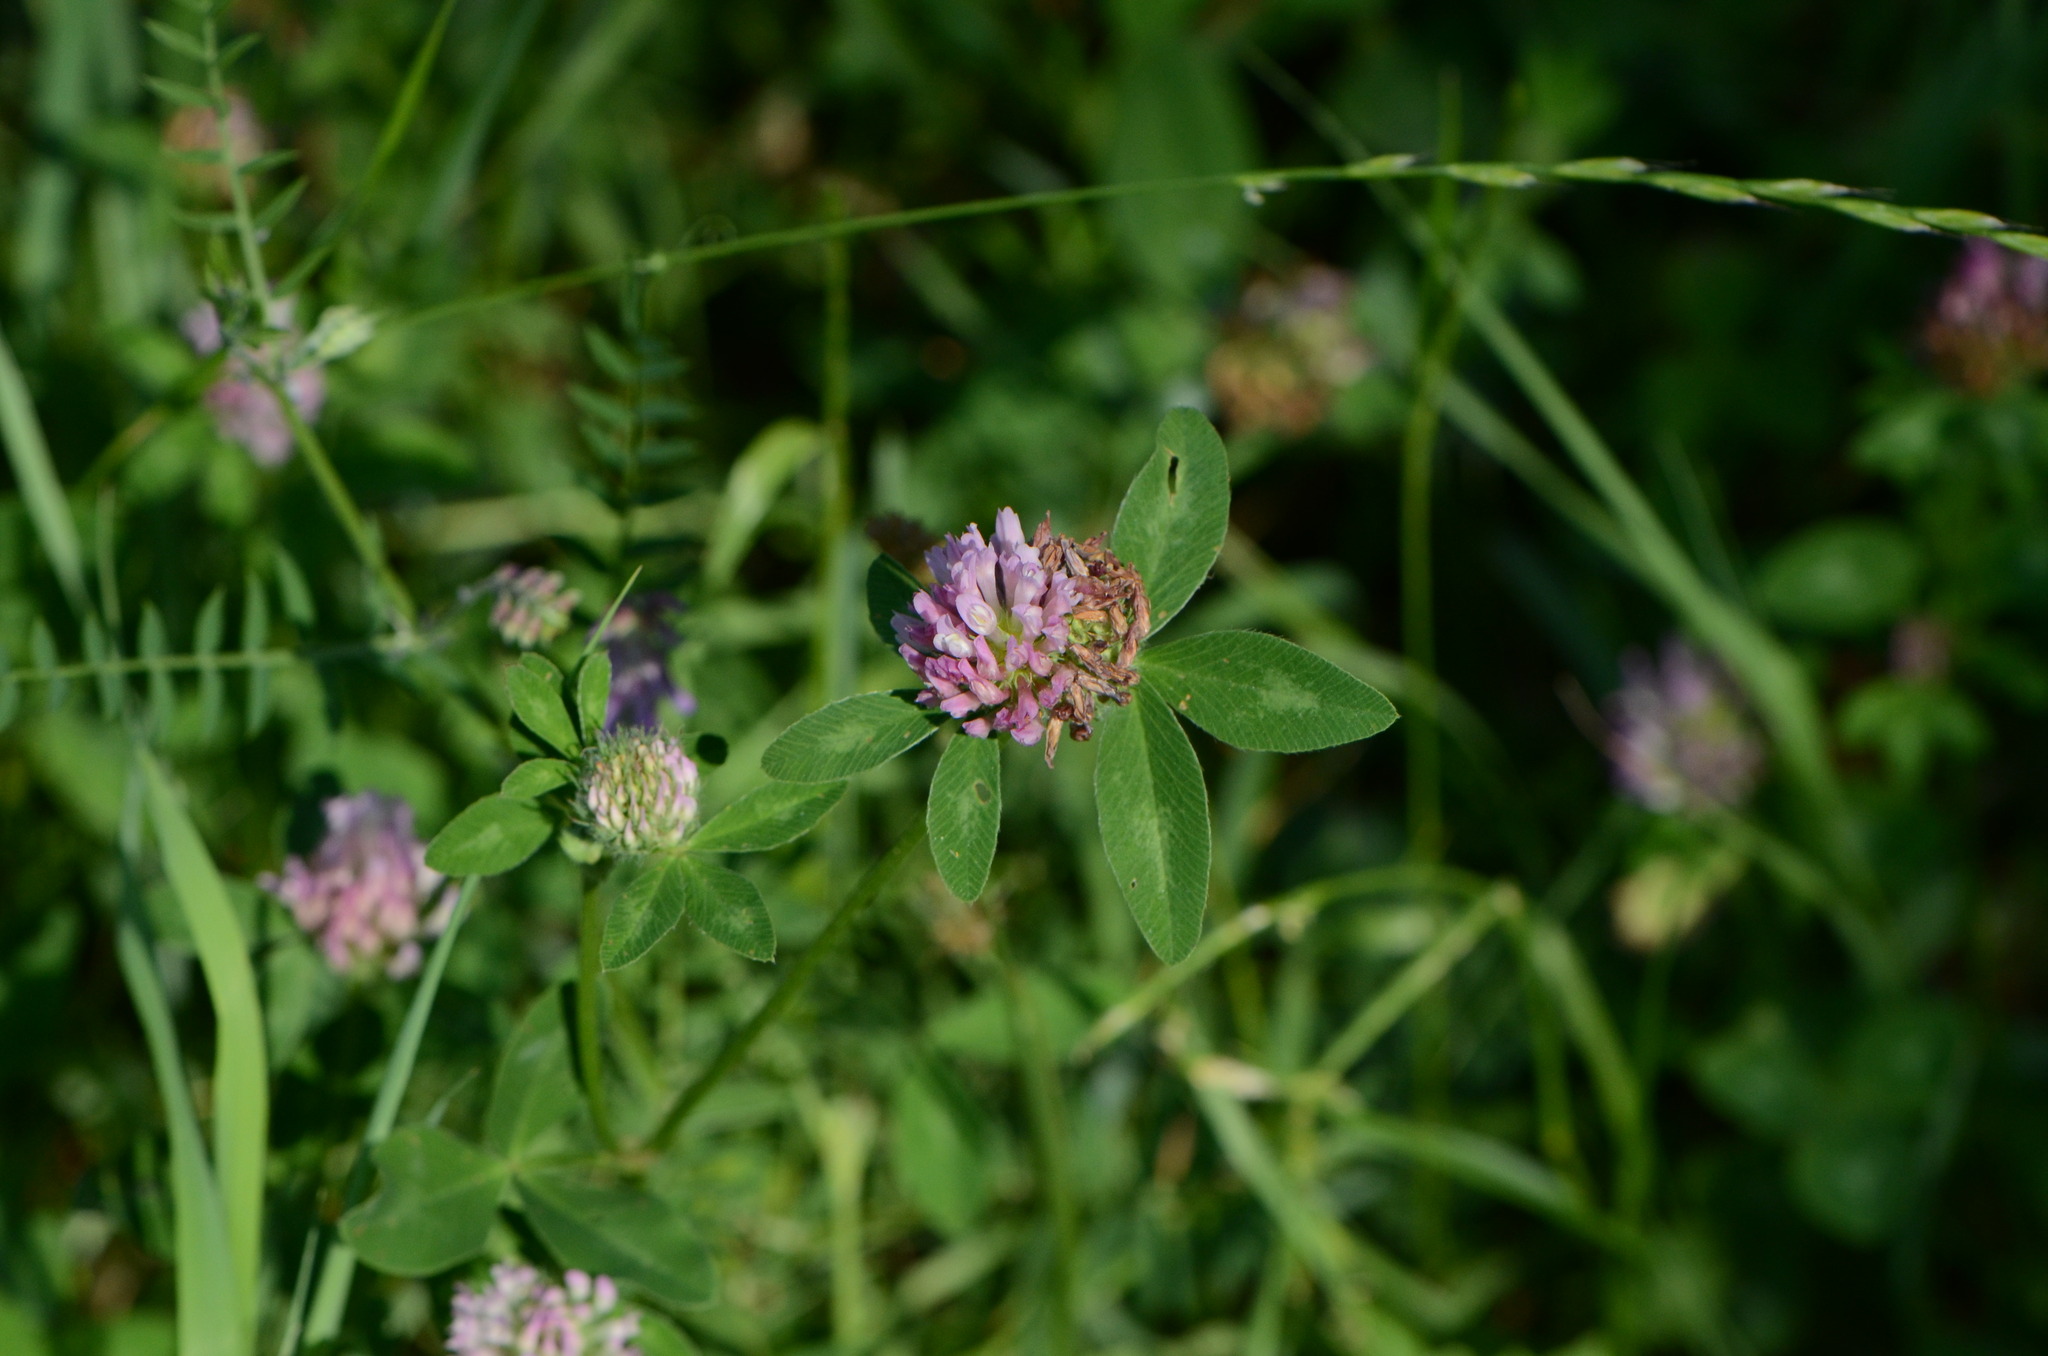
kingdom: Plantae
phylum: Tracheophyta
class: Magnoliopsida
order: Fabales
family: Fabaceae
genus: Trifolium
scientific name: Trifolium pratense
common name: Red clover
